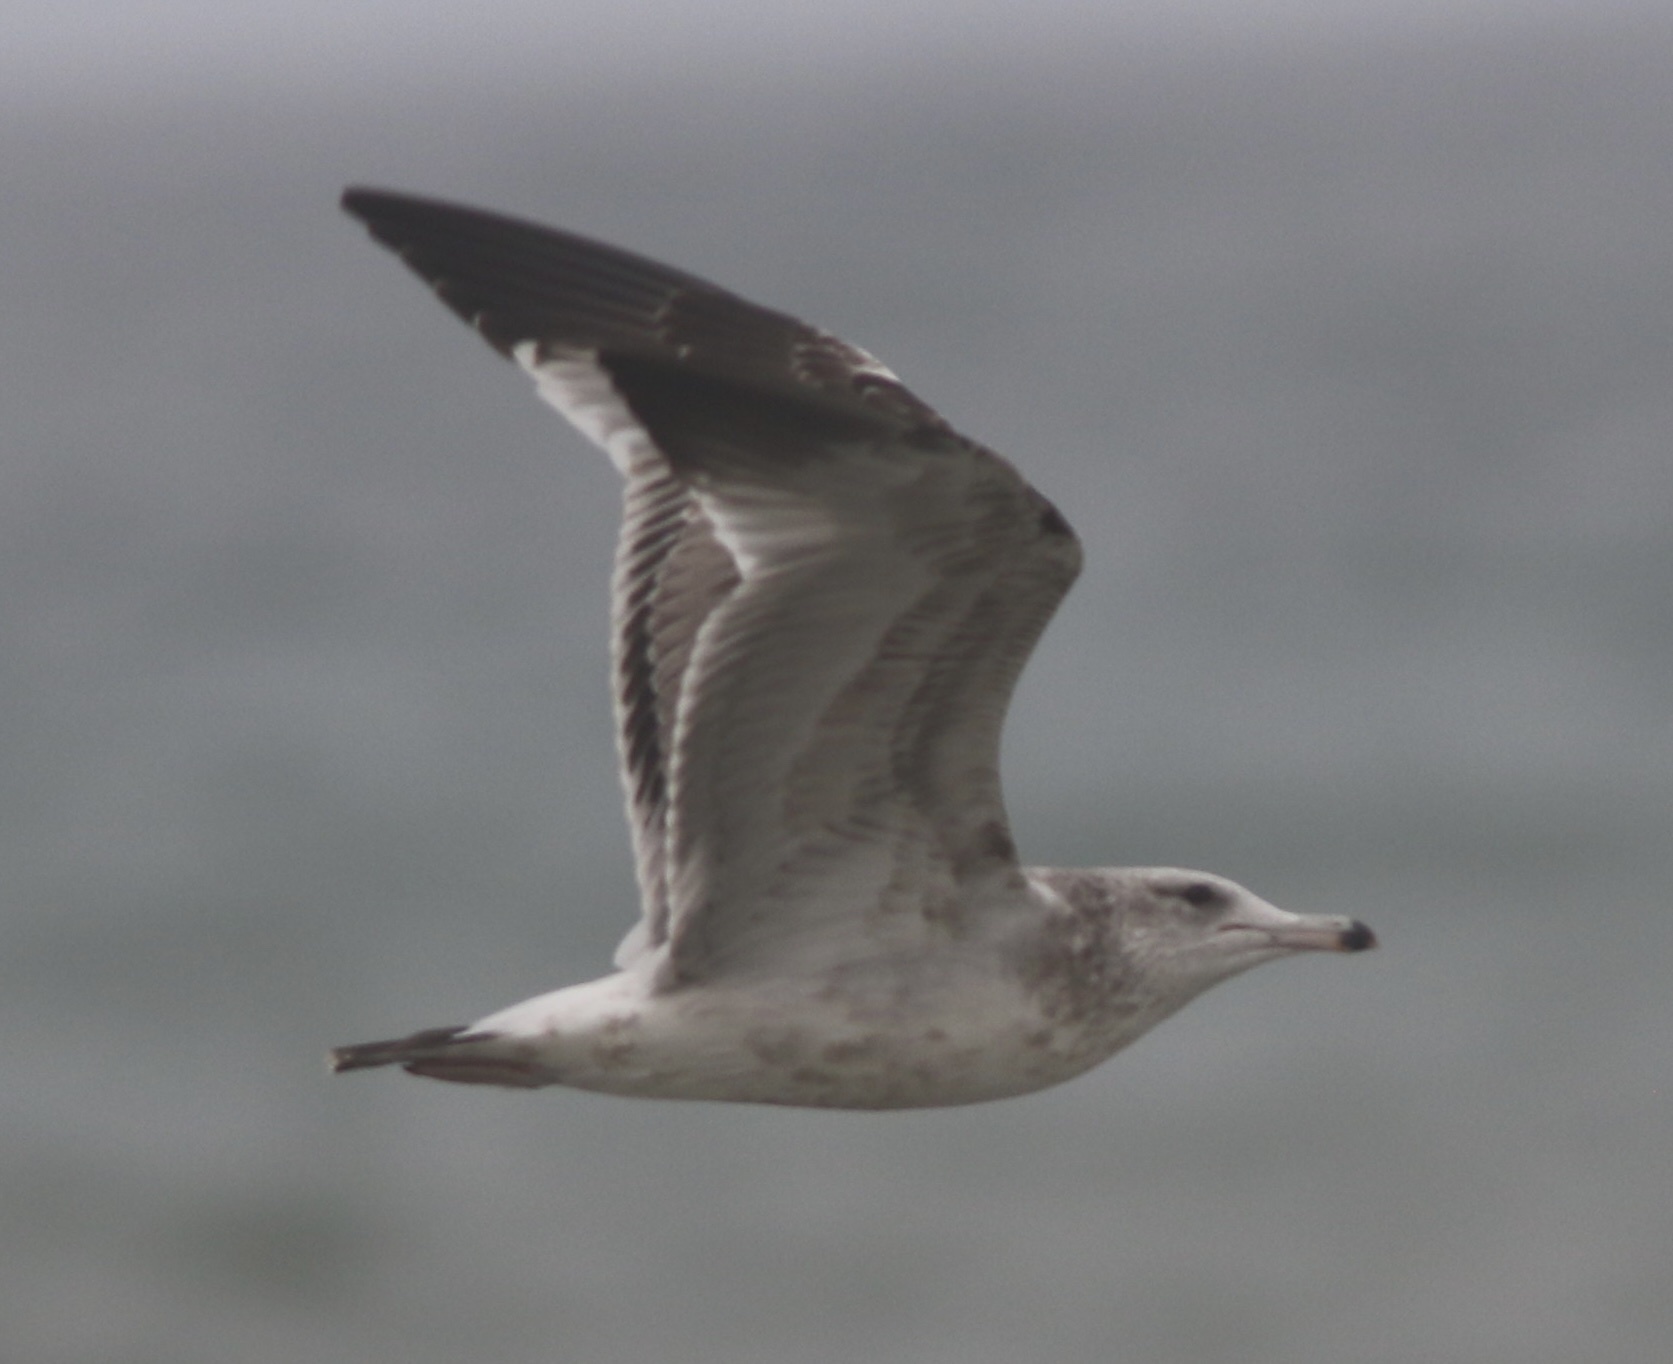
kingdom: Animalia
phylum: Chordata
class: Aves
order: Charadriiformes
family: Laridae
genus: Larus
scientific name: Larus californicus
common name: California gull
